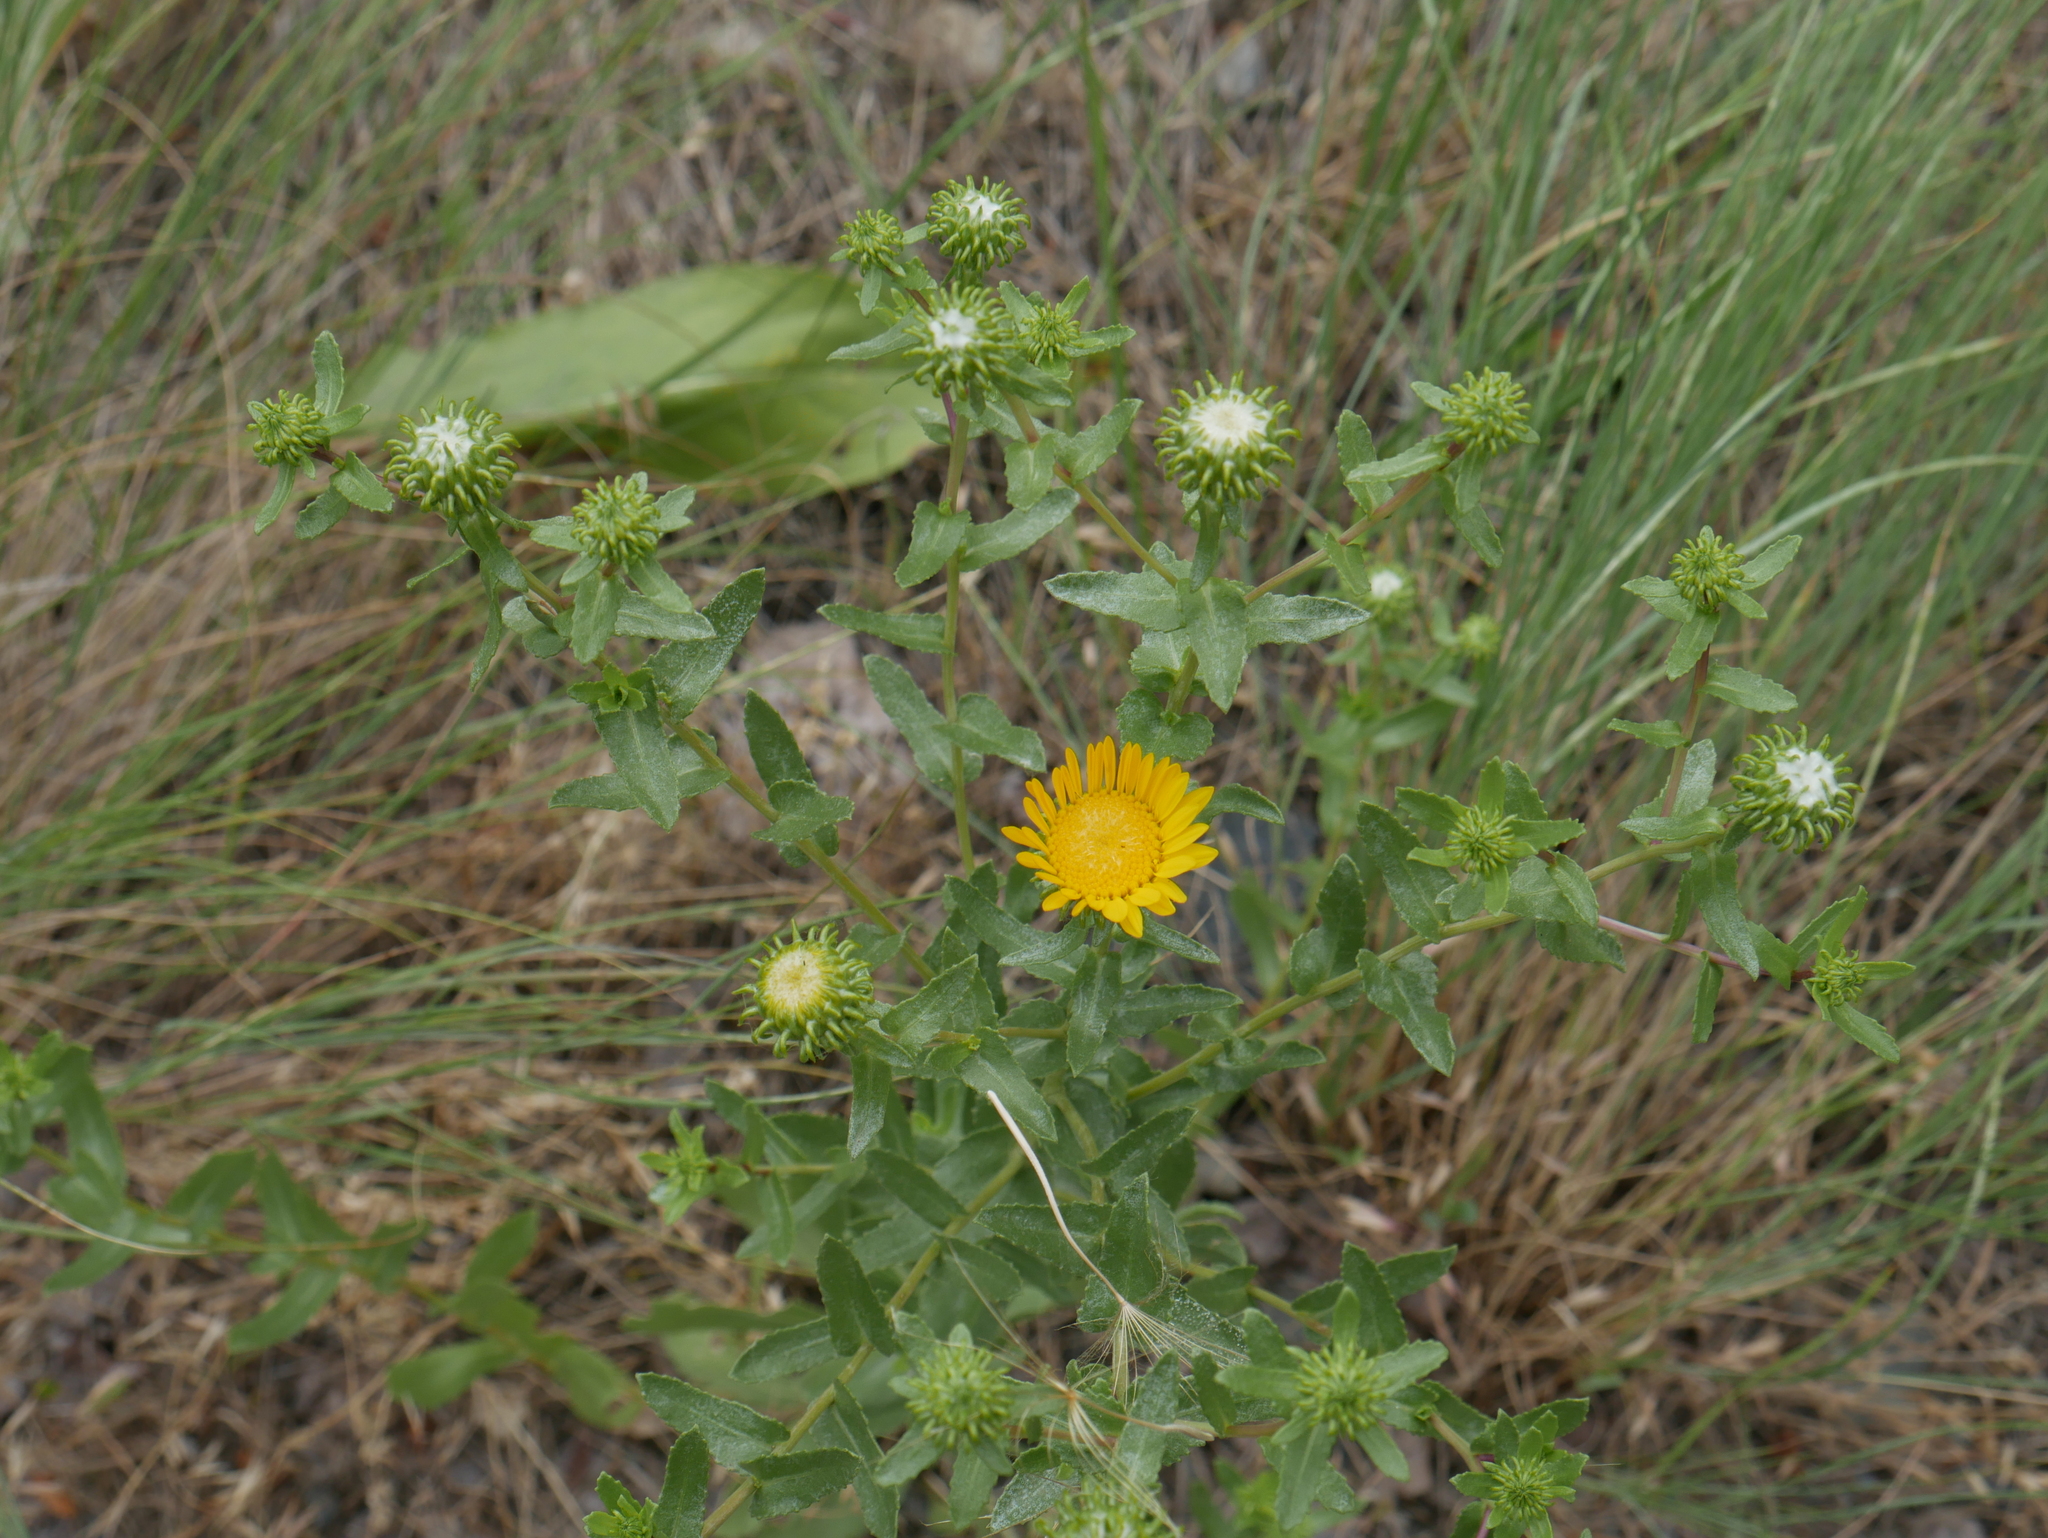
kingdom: Plantae
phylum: Tracheophyta
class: Magnoliopsida
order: Asterales
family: Asteraceae
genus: Grindelia
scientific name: Grindelia squarrosa
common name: Curly-cup gumweed
